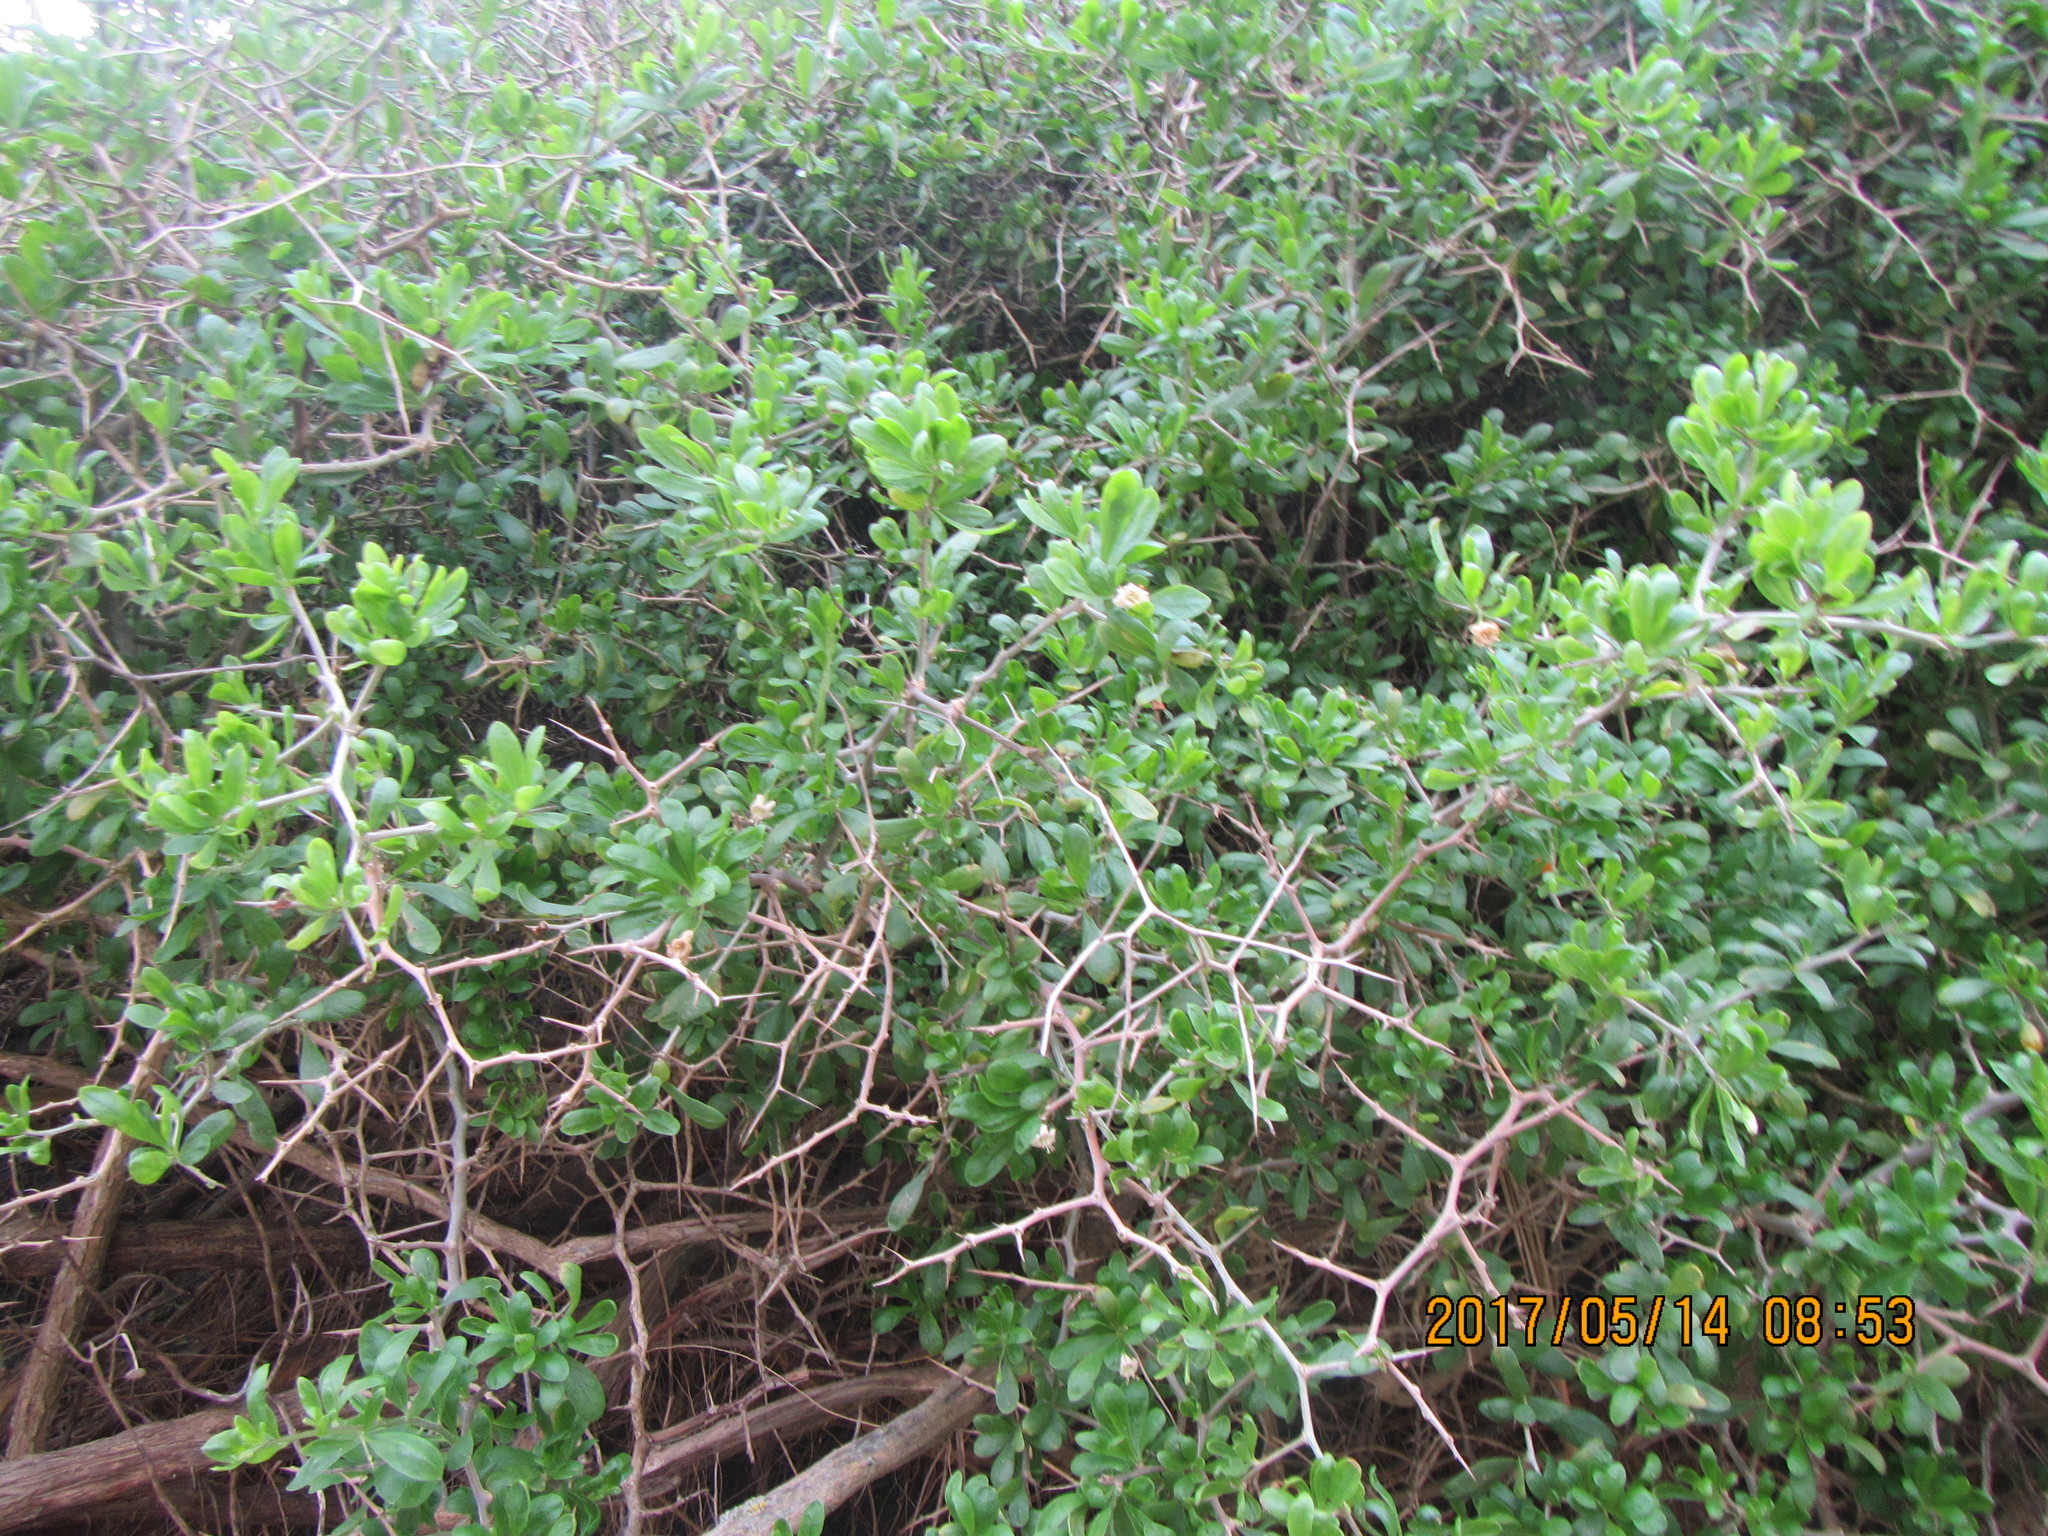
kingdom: Plantae
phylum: Tracheophyta
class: Magnoliopsida
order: Solanales
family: Solanaceae
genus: Lycium
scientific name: Lycium ferocissimum
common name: African boxthorn
